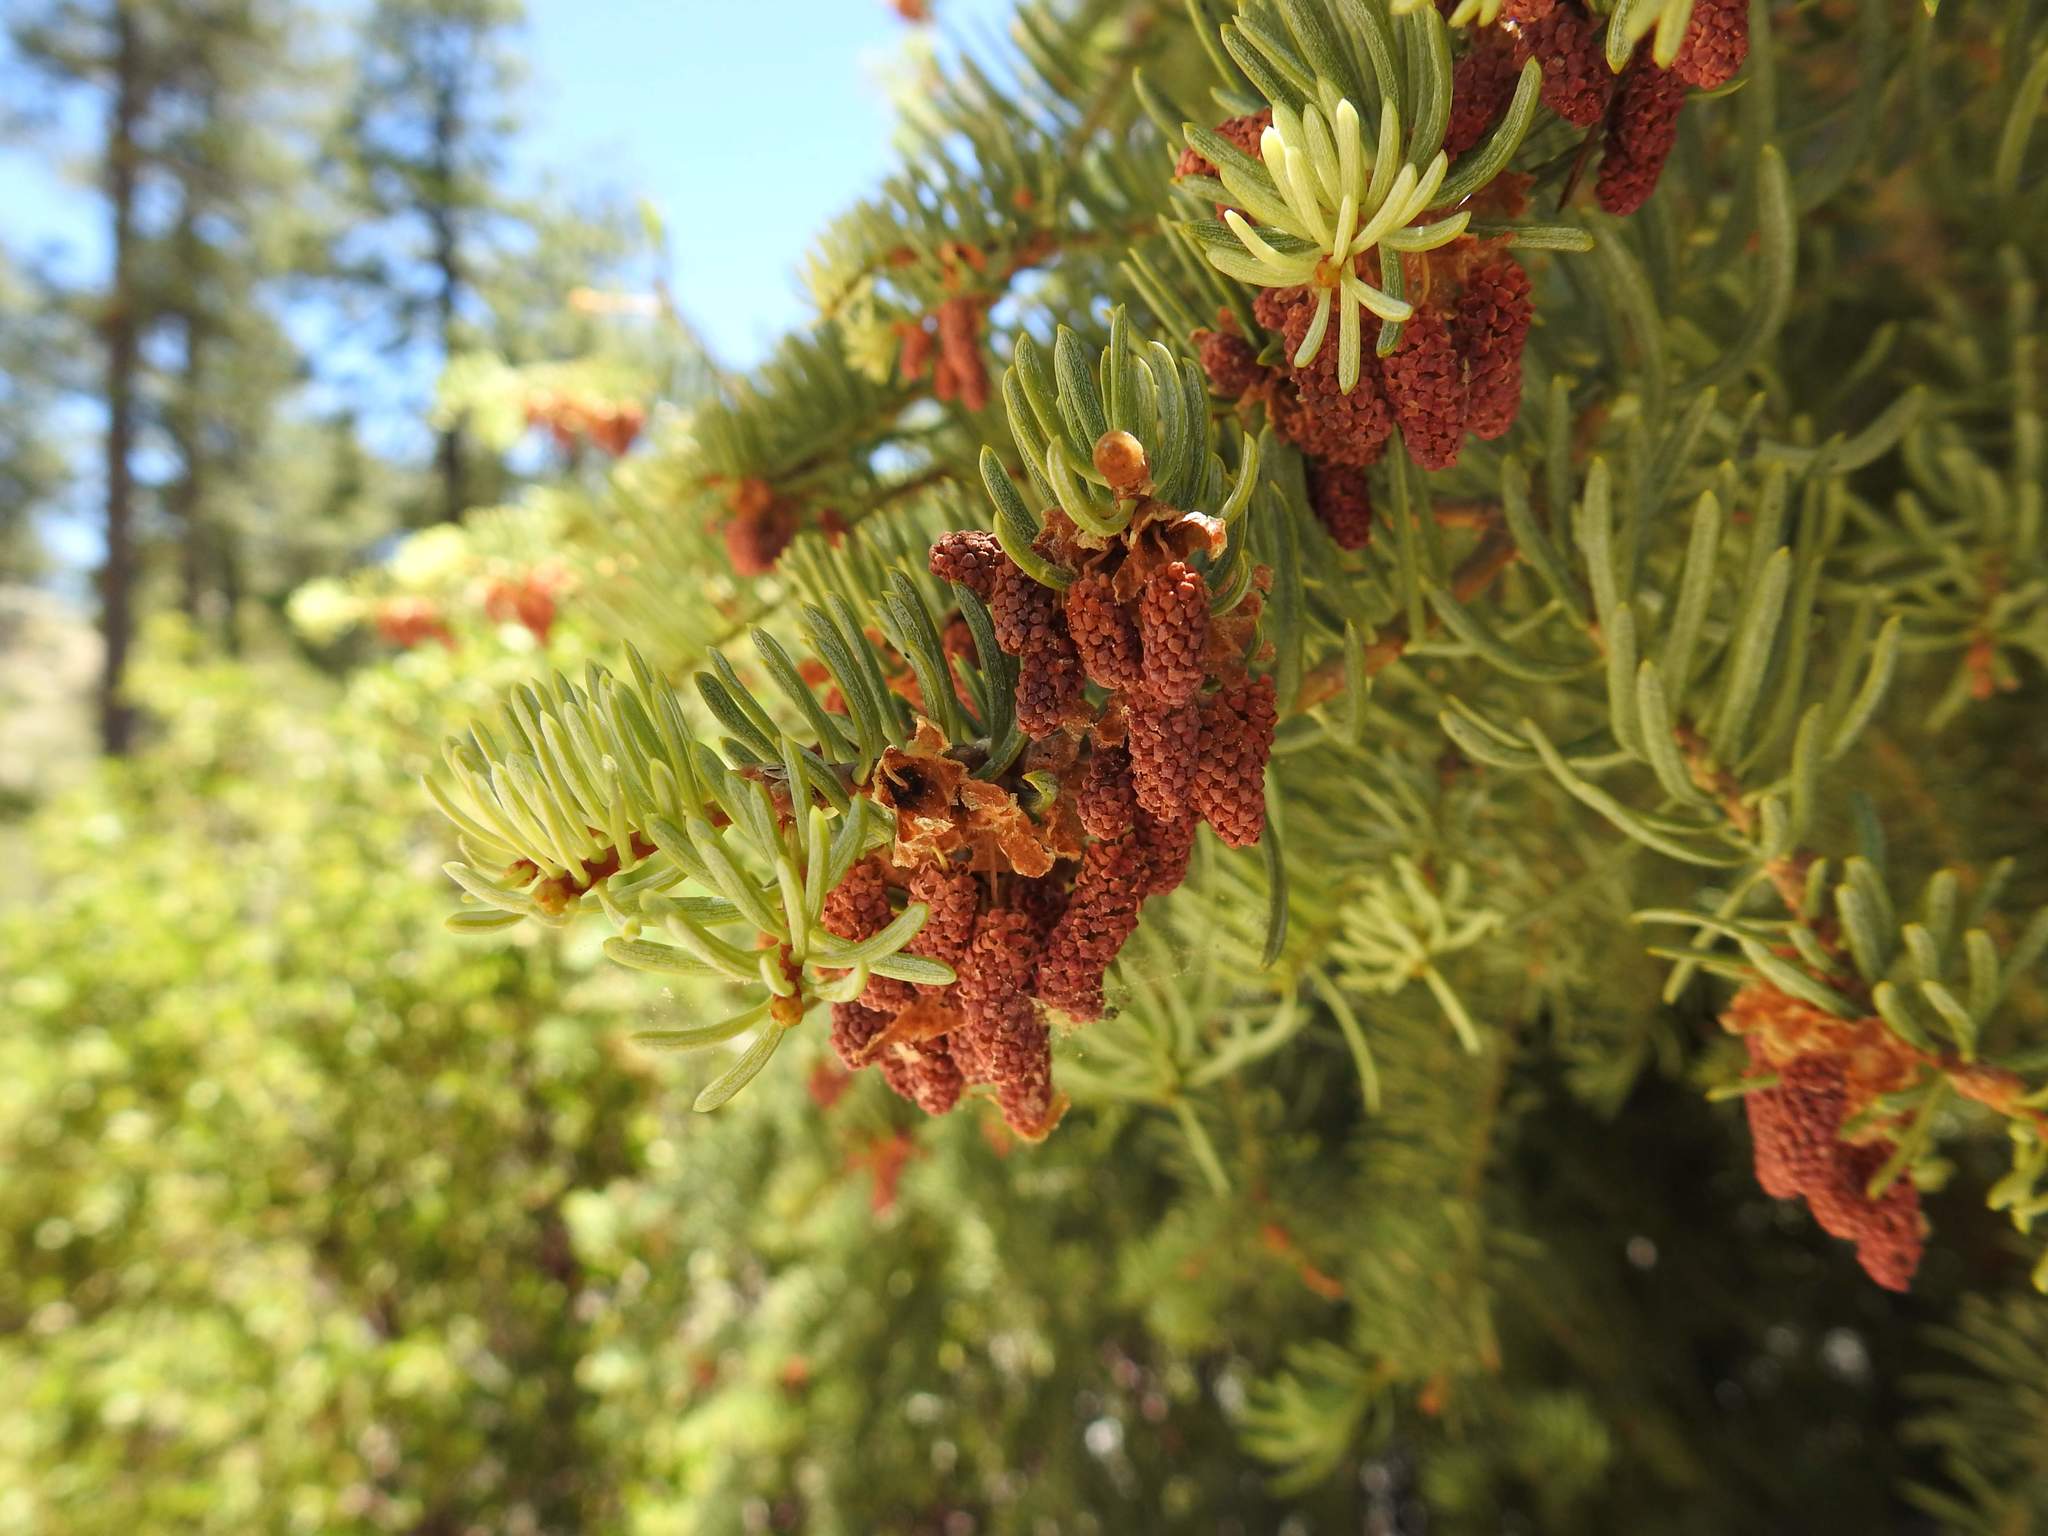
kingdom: Plantae
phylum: Tracheophyta
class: Pinopsida
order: Pinales
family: Pinaceae
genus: Abies
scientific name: Abies concolor
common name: Colorado fir
